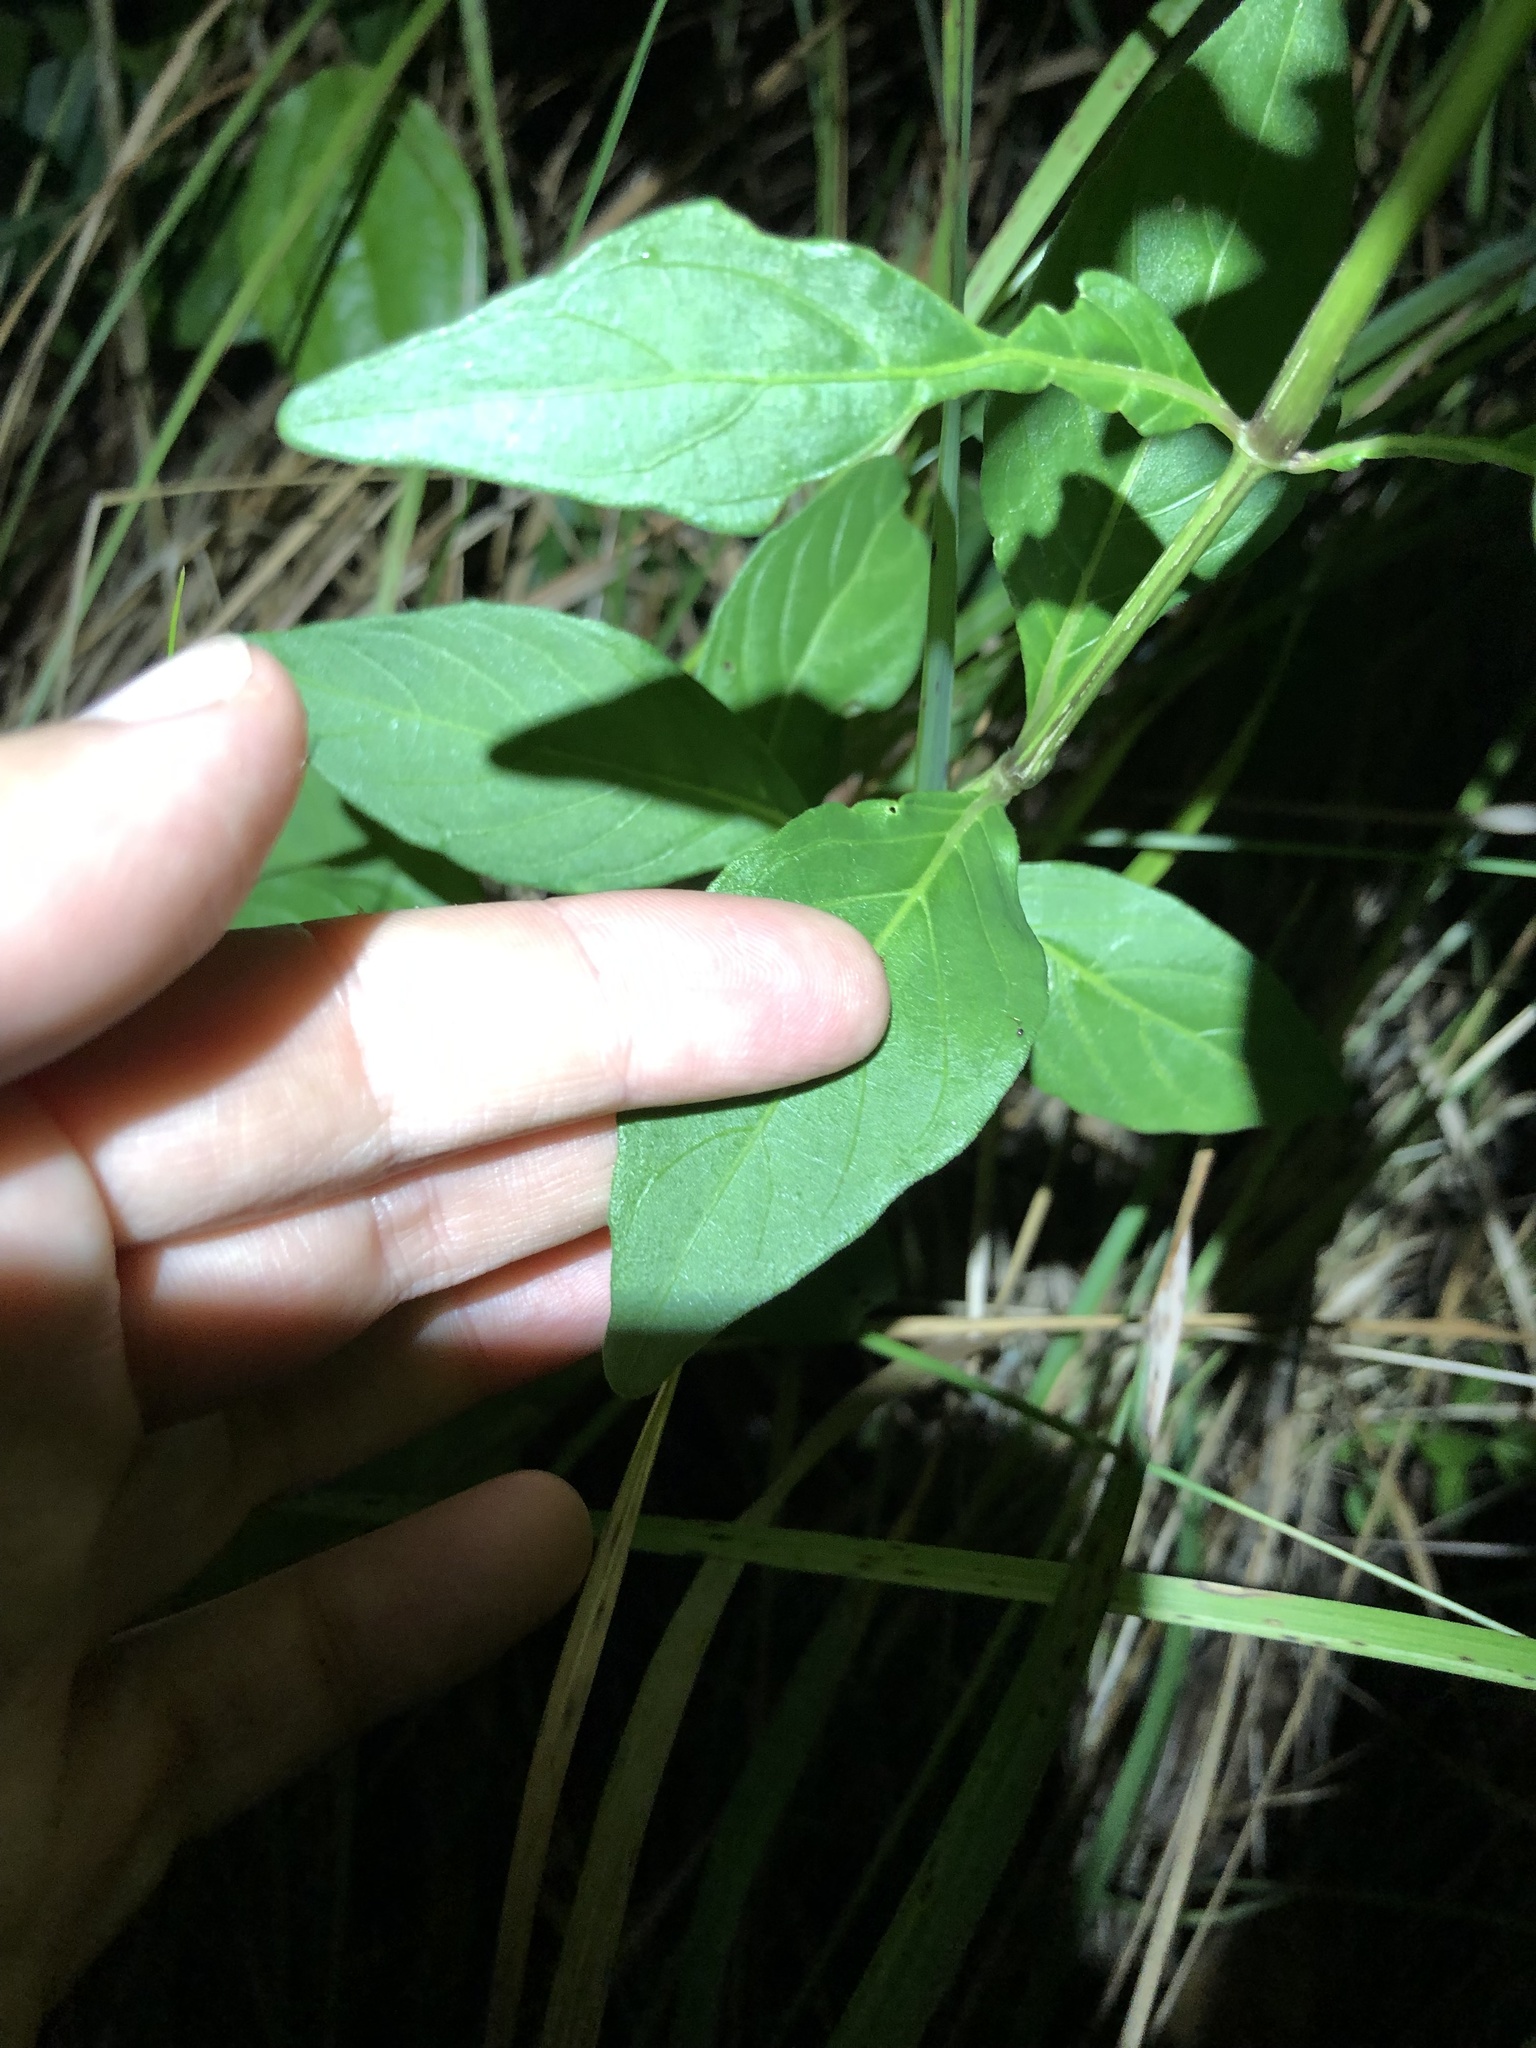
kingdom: Plantae
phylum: Tracheophyta
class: Magnoliopsida
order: Lamiales
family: Acanthaceae
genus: Justicia
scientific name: Justicia campylostemon
